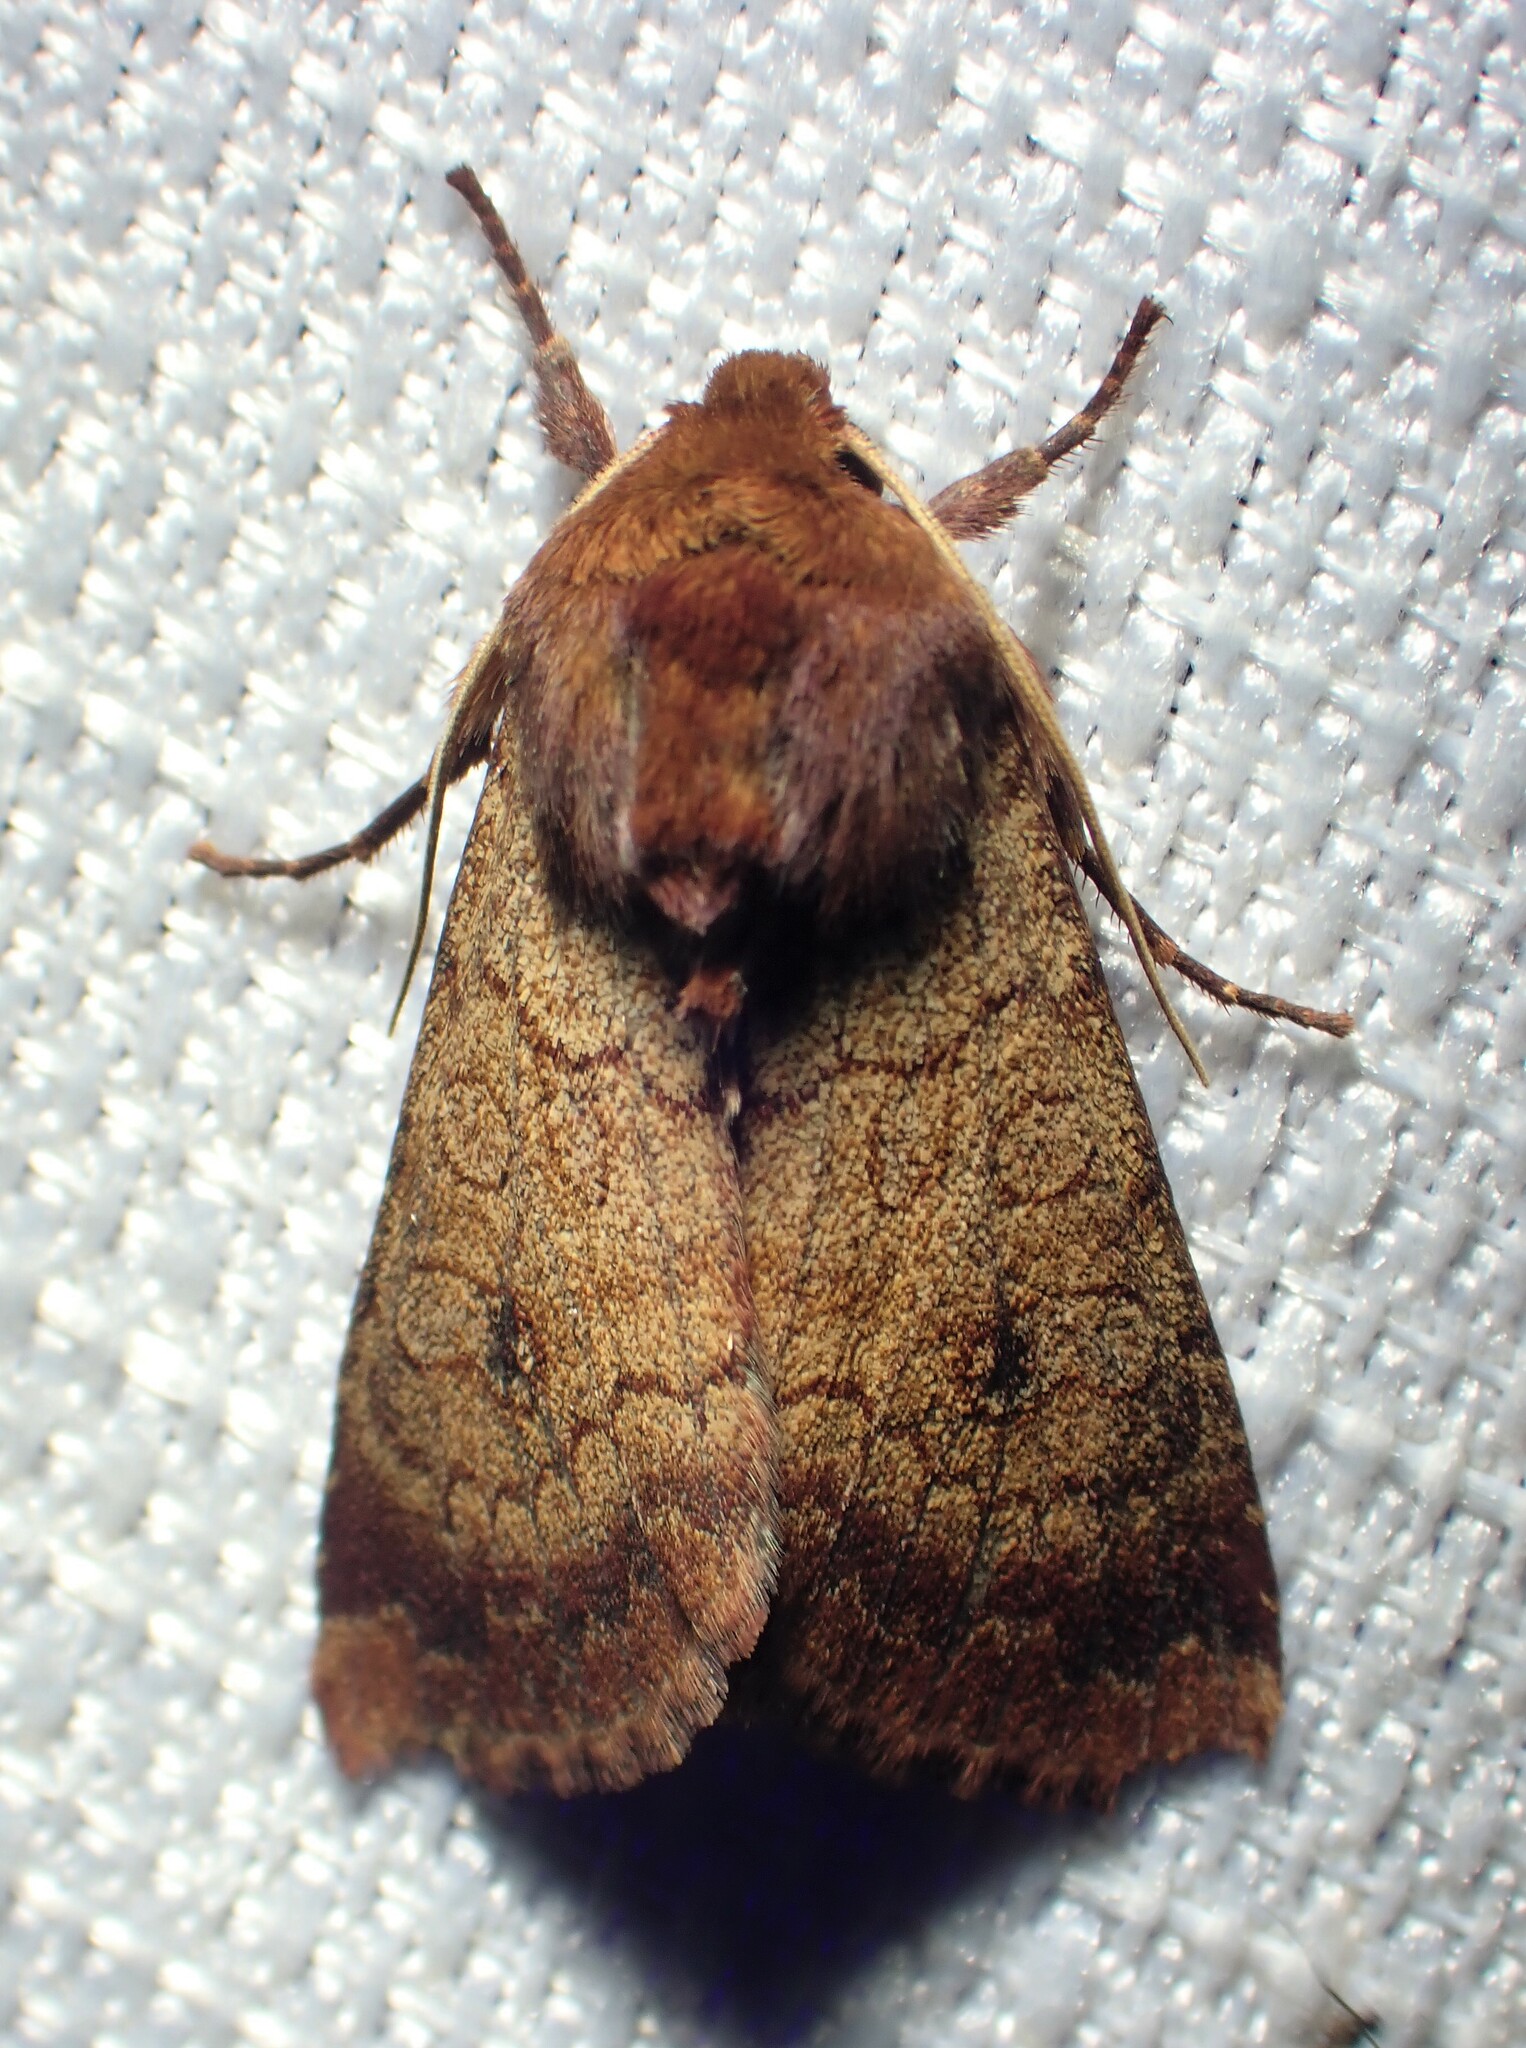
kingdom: Animalia
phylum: Arthropoda
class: Insecta
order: Lepidoptera
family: Noctuidae
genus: Sideridis
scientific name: Sideridis rosea
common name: Rosewing moth
